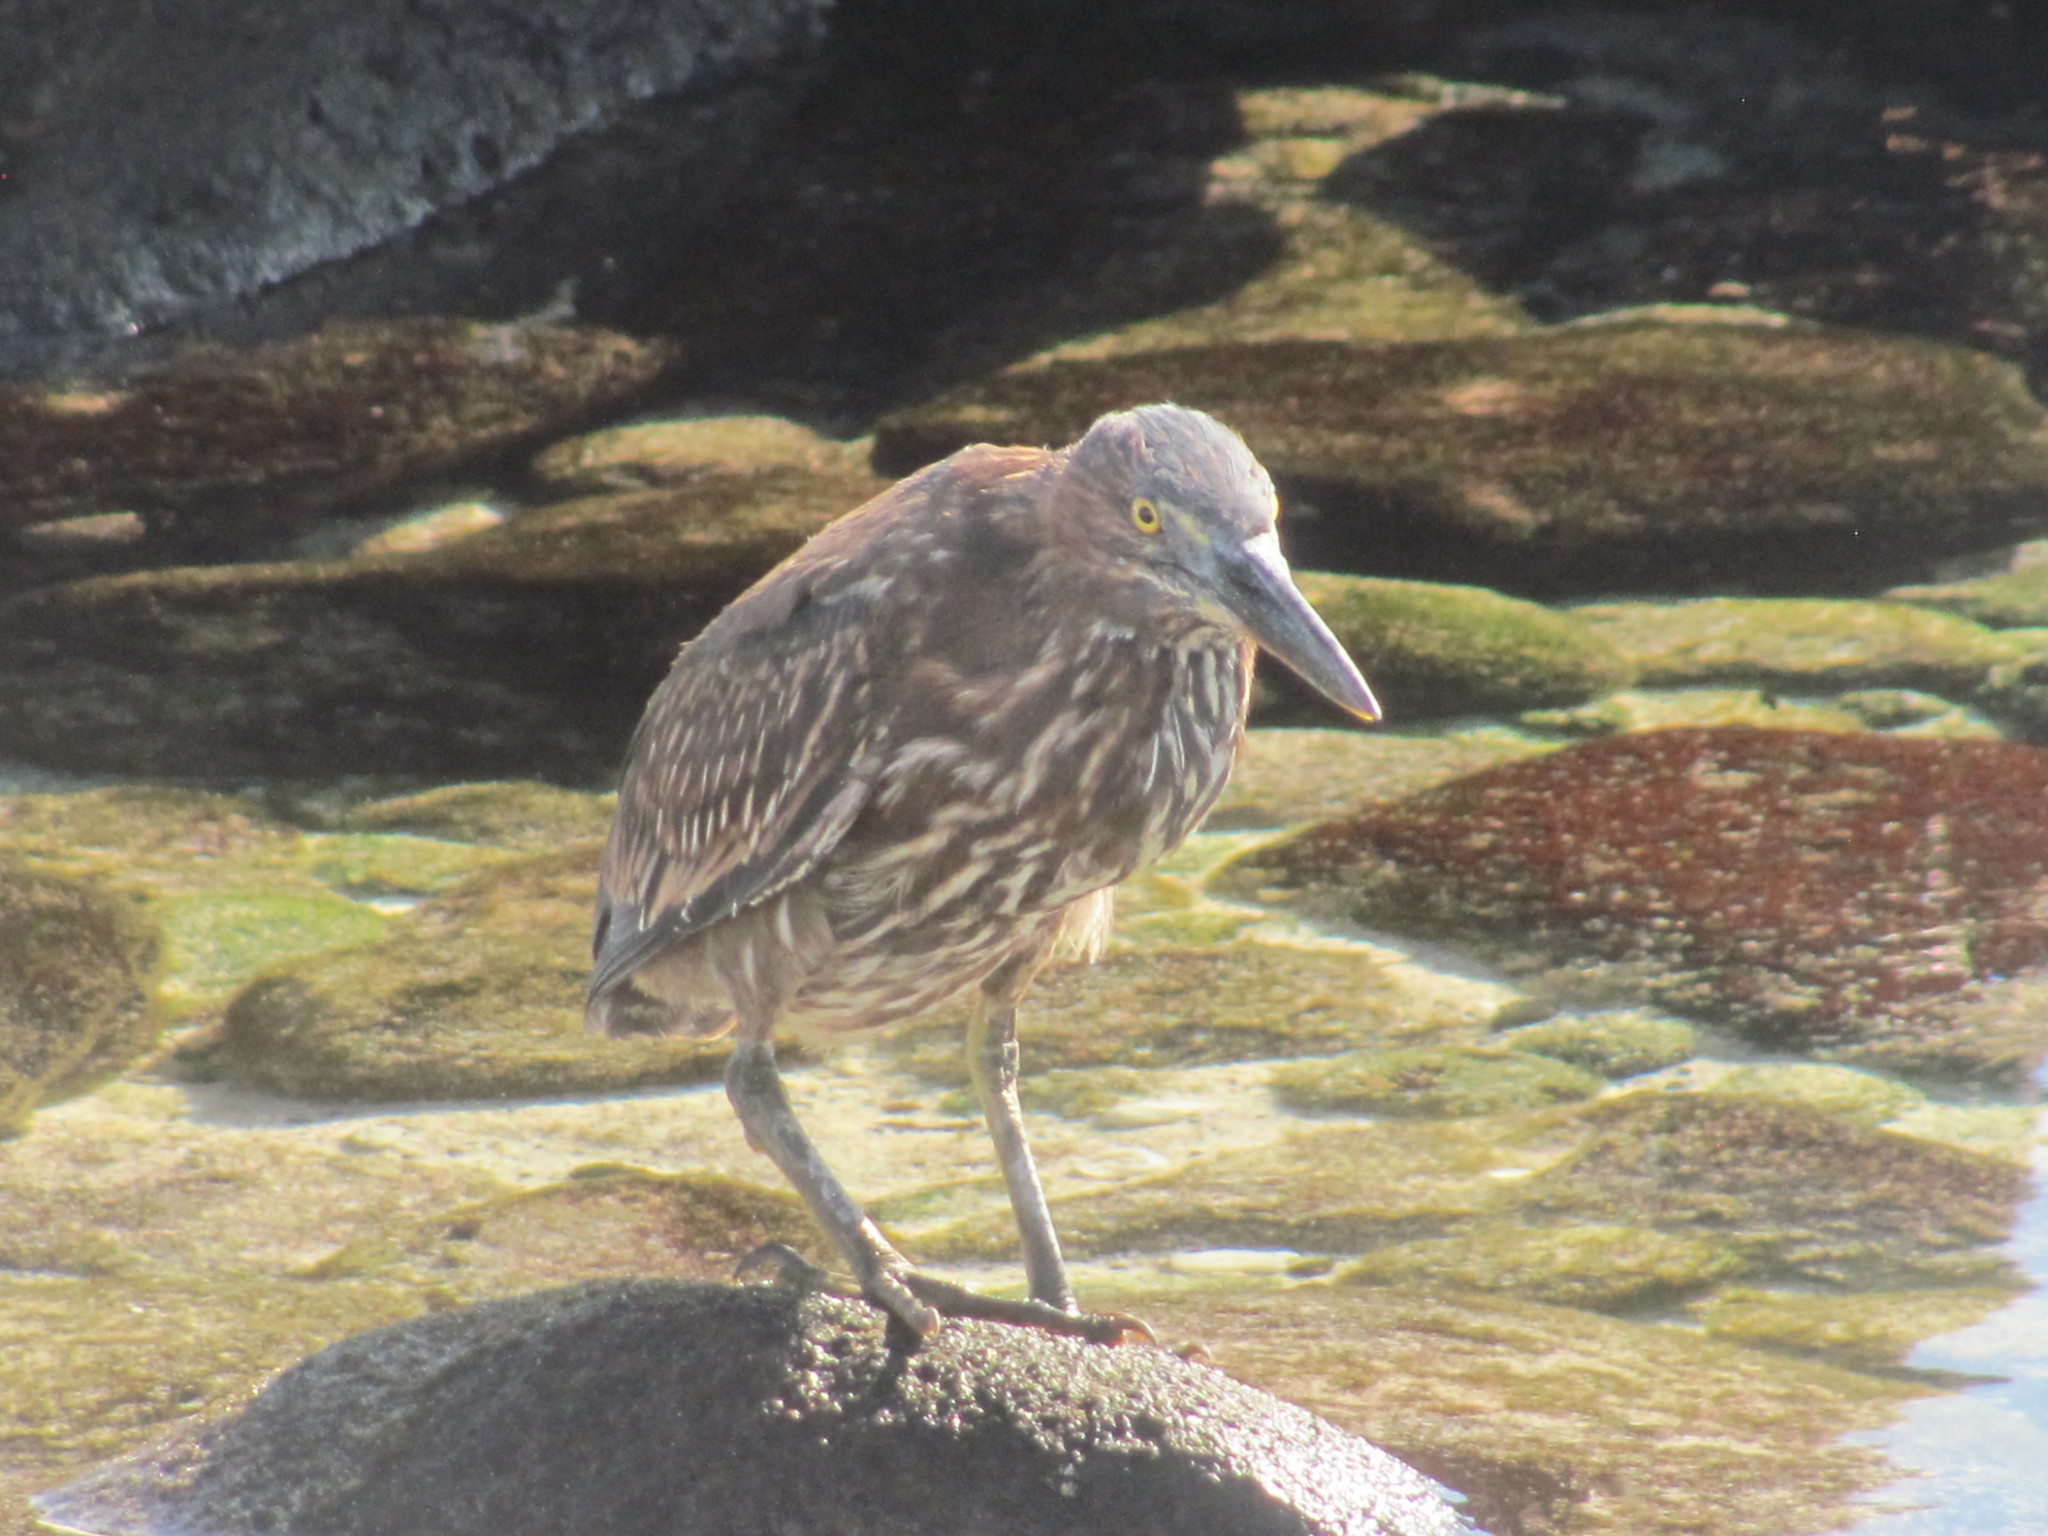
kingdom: Animalia
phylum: Chordata
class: Aves
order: Pelecaniformes
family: Ardeidae
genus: Butorides
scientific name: Butorides striata
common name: Striated heron
